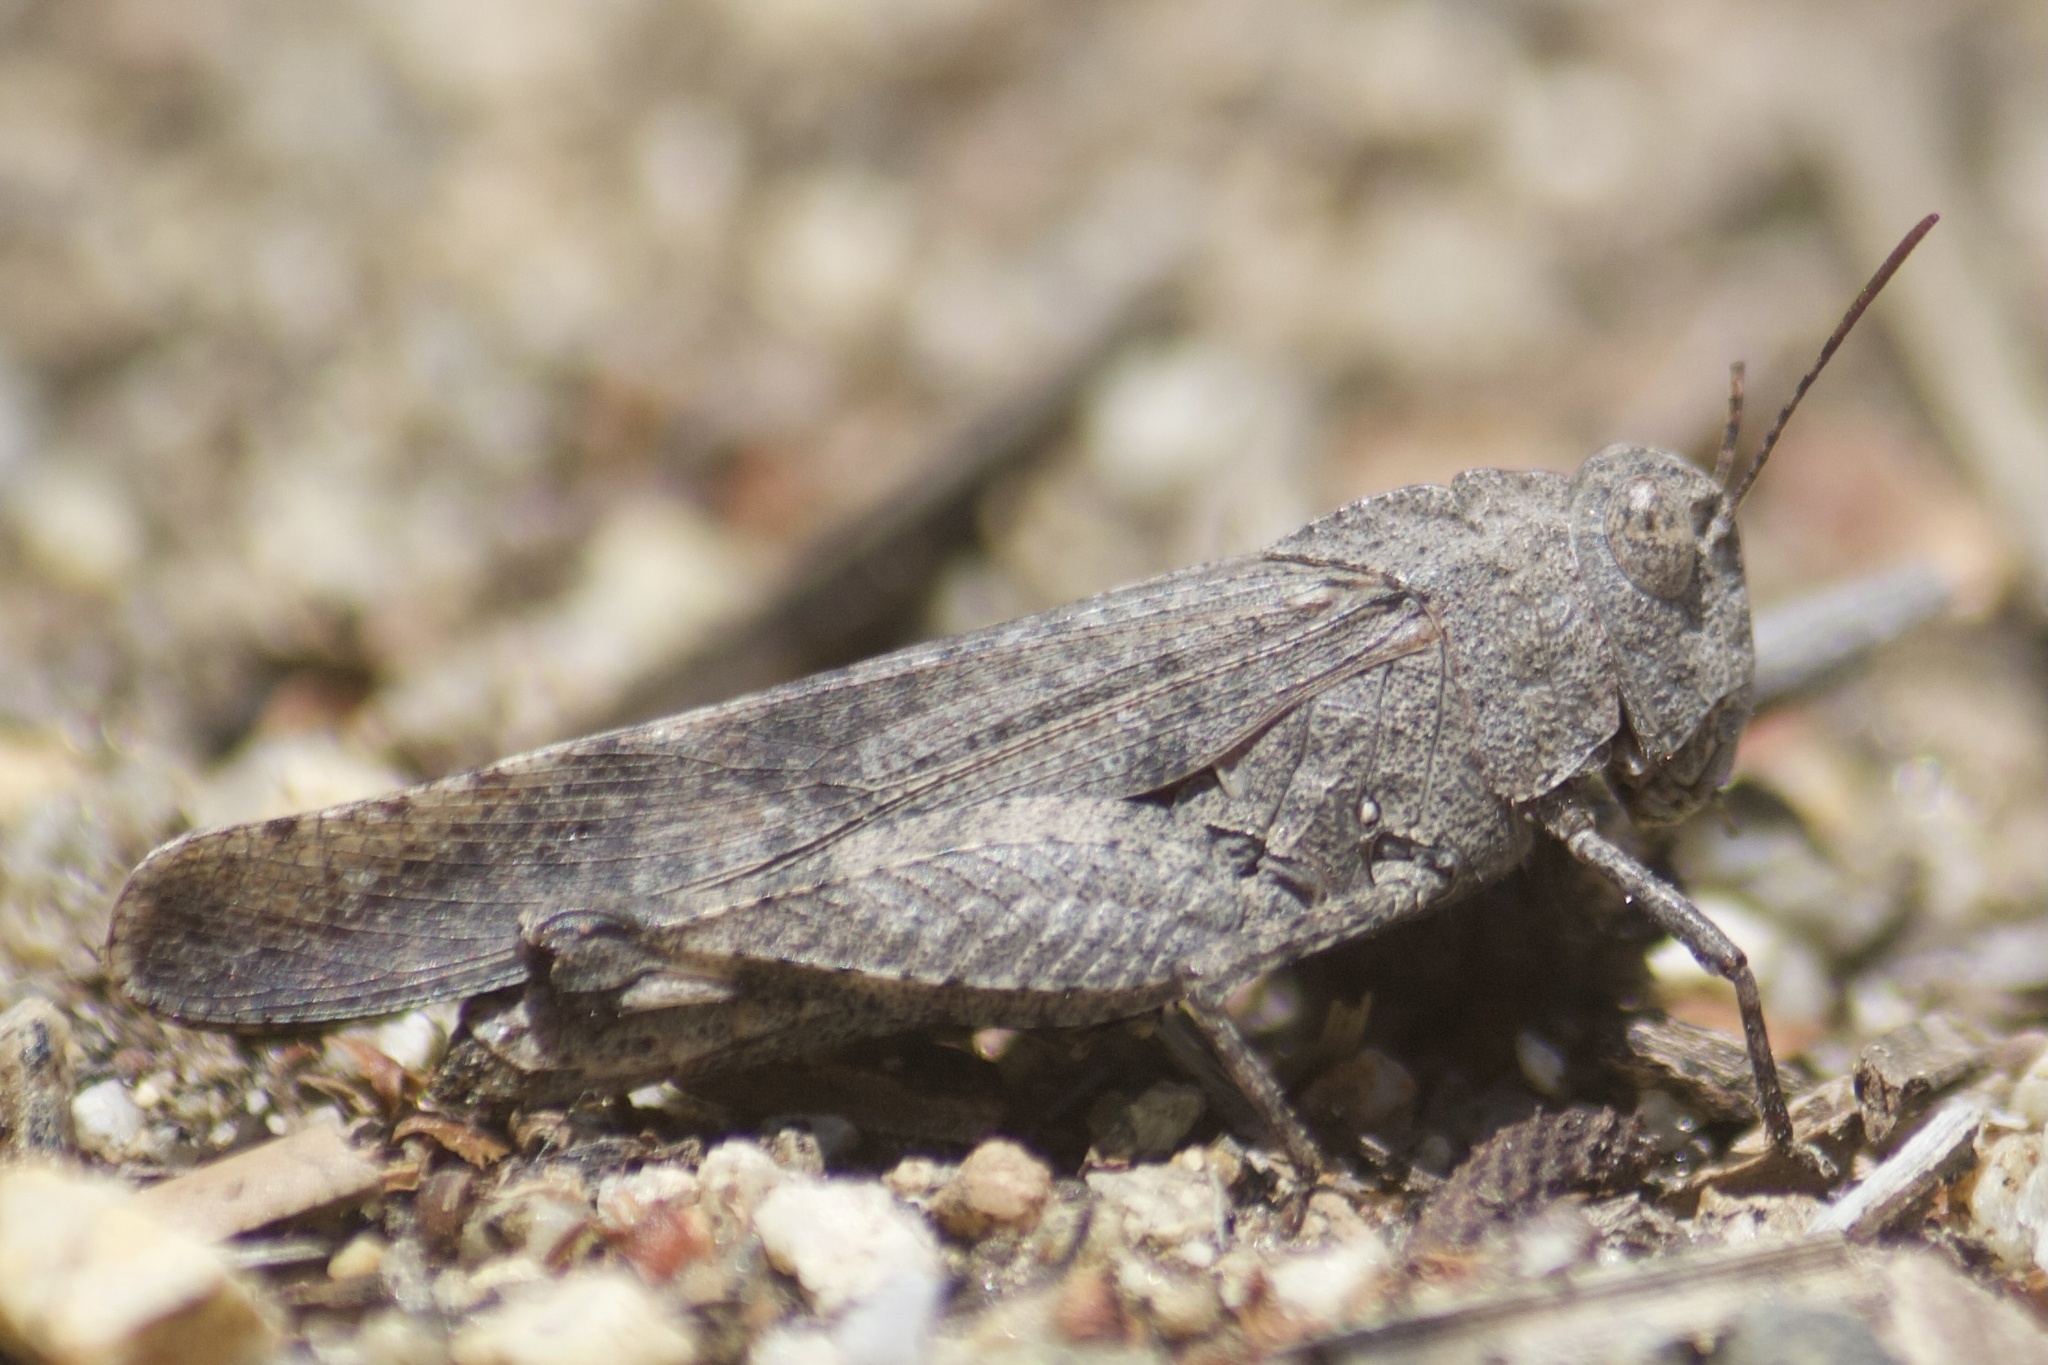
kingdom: Animalia
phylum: Arthropoda
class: Insecta
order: Orthoptera
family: Acrididae
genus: Lactista
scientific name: Lactista gibbosus
